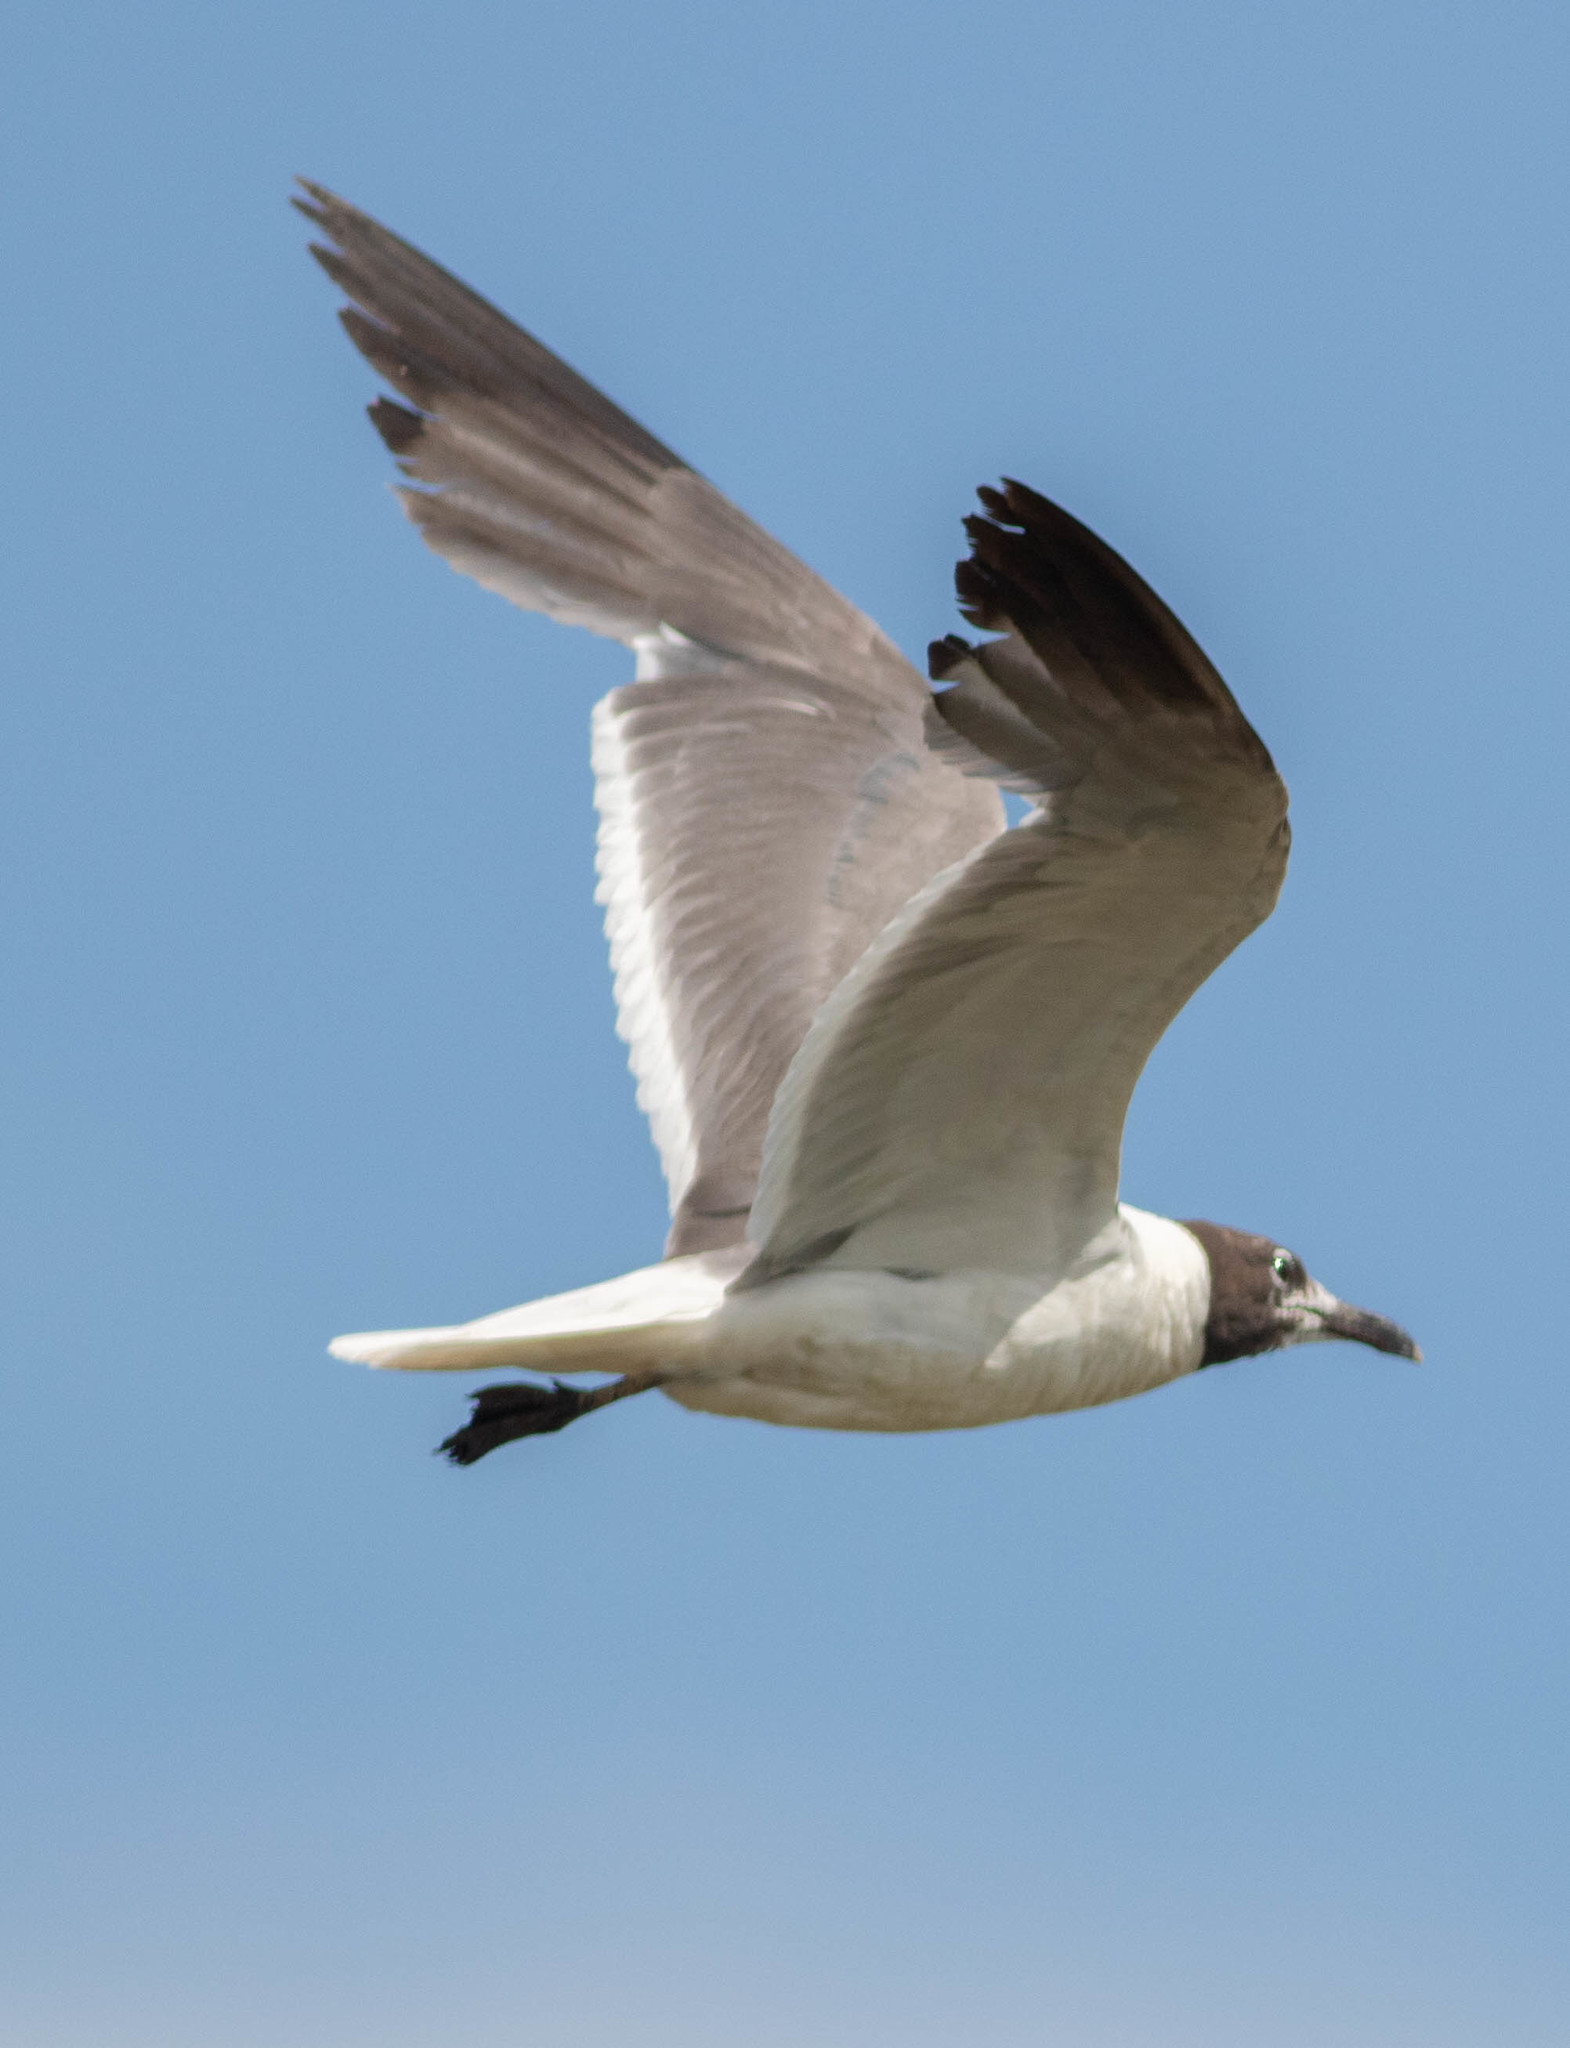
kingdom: Animalia
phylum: Chordata
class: Aves
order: Charadriiformes
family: Laridae
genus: Leucophaeus
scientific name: Leucophaeus atricilla
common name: Laughing gull
